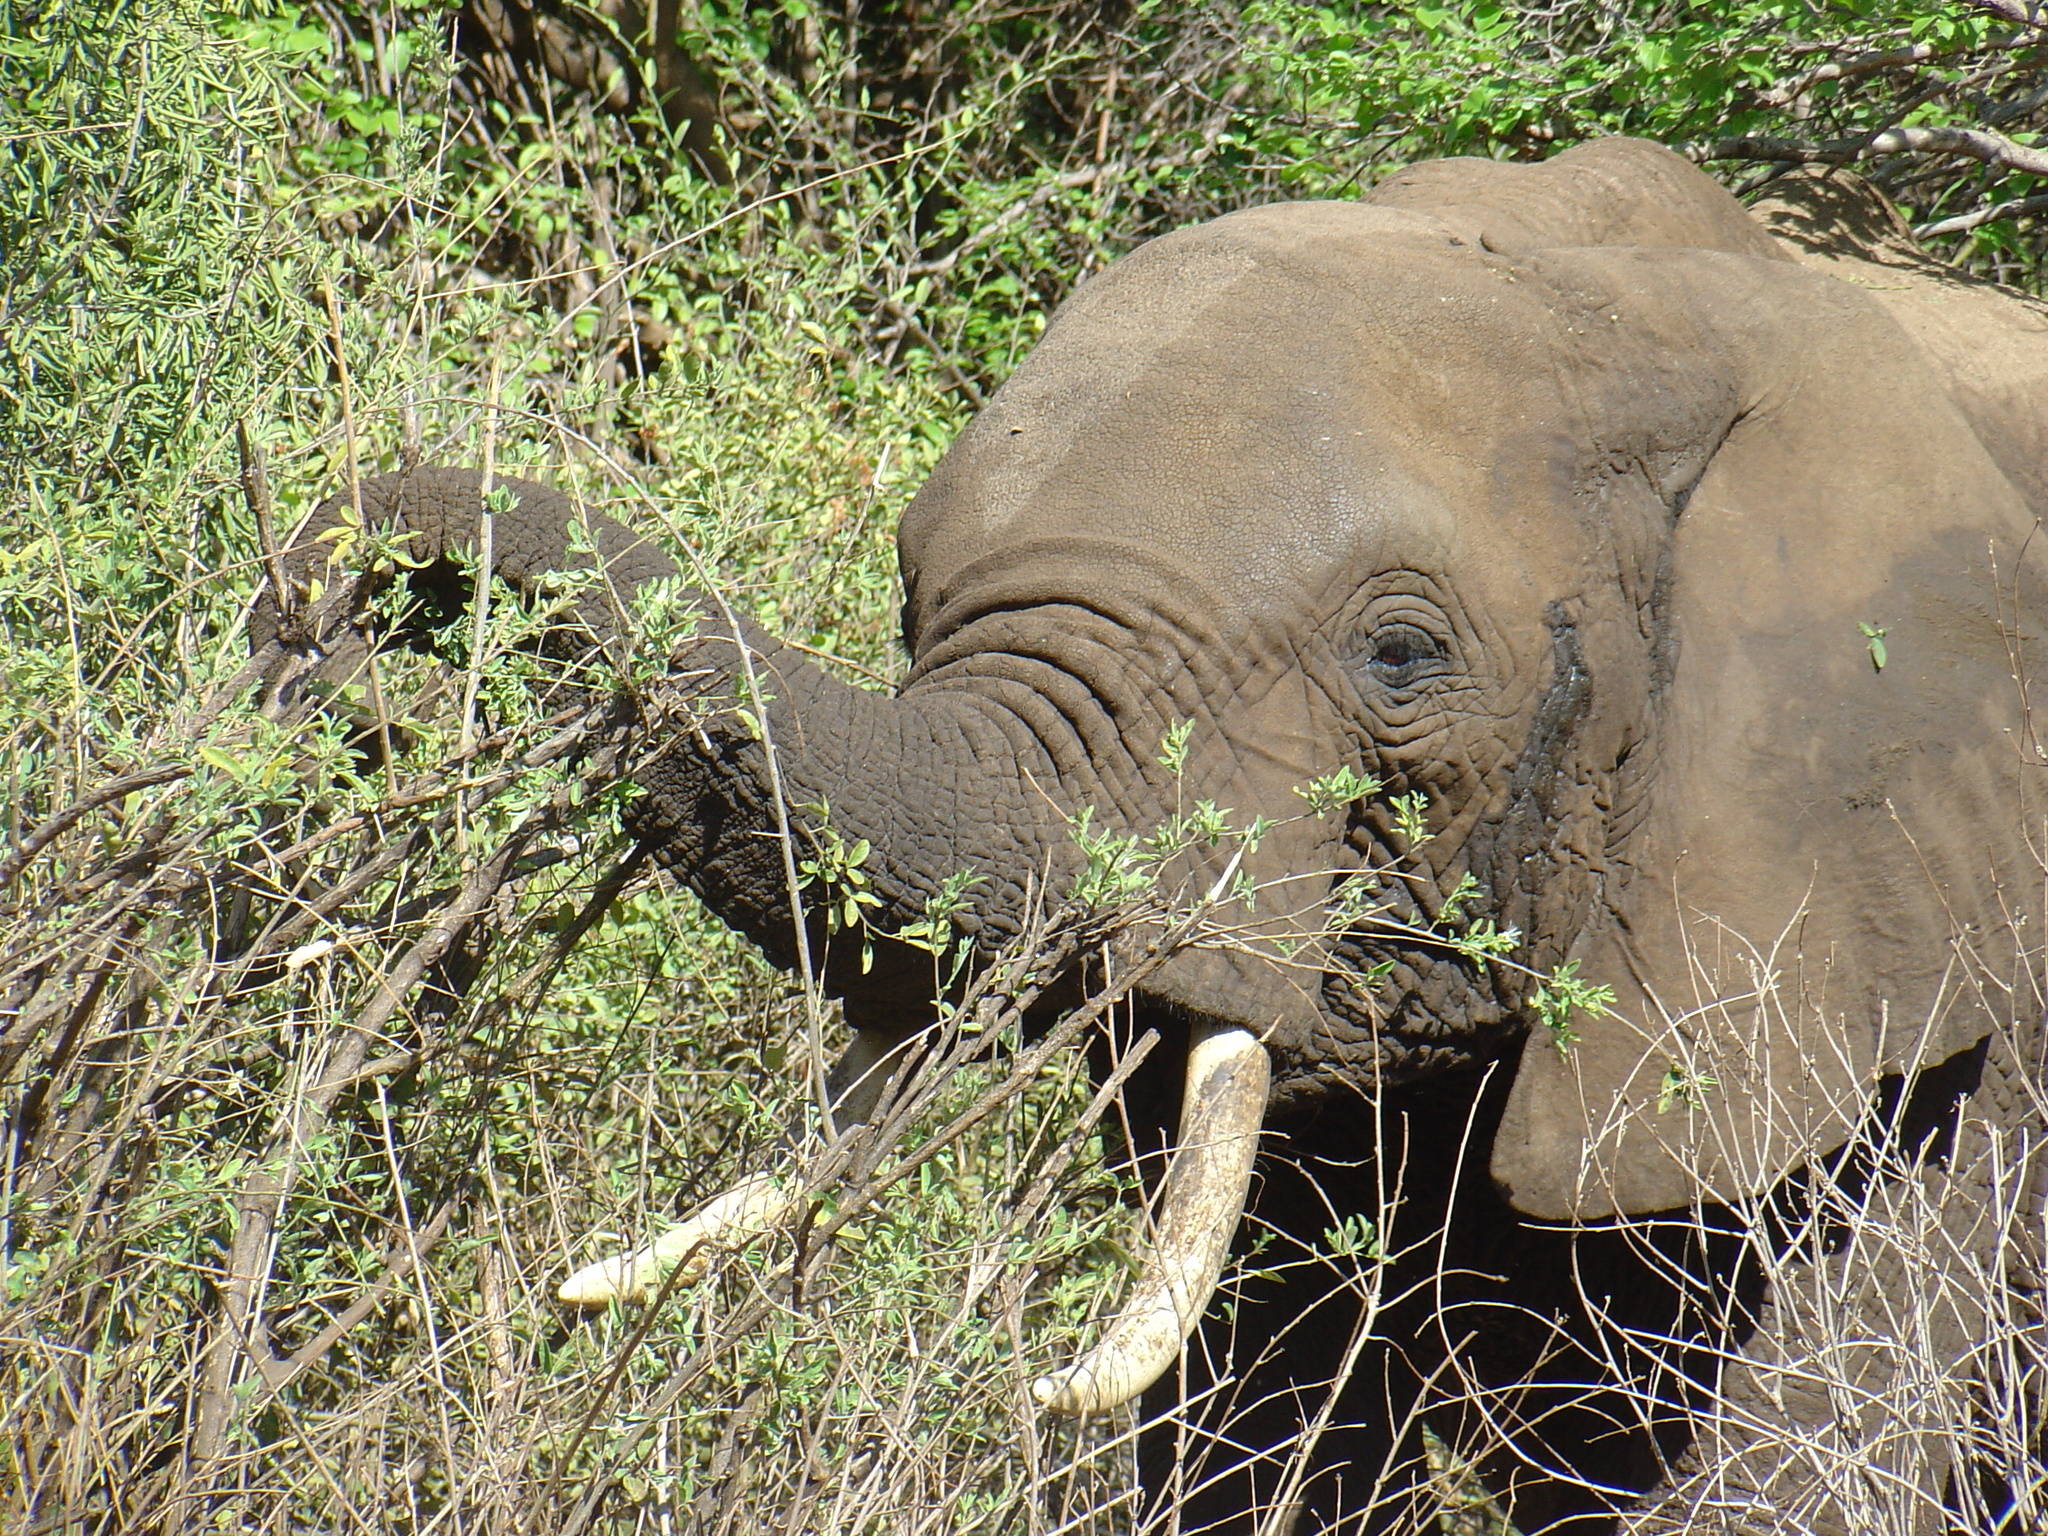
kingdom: Animalia
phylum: Chordata
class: Mammalia
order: Proboscidea
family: Elephantidae
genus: Loxodonta
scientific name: Loxodonta africana
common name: African elephant
